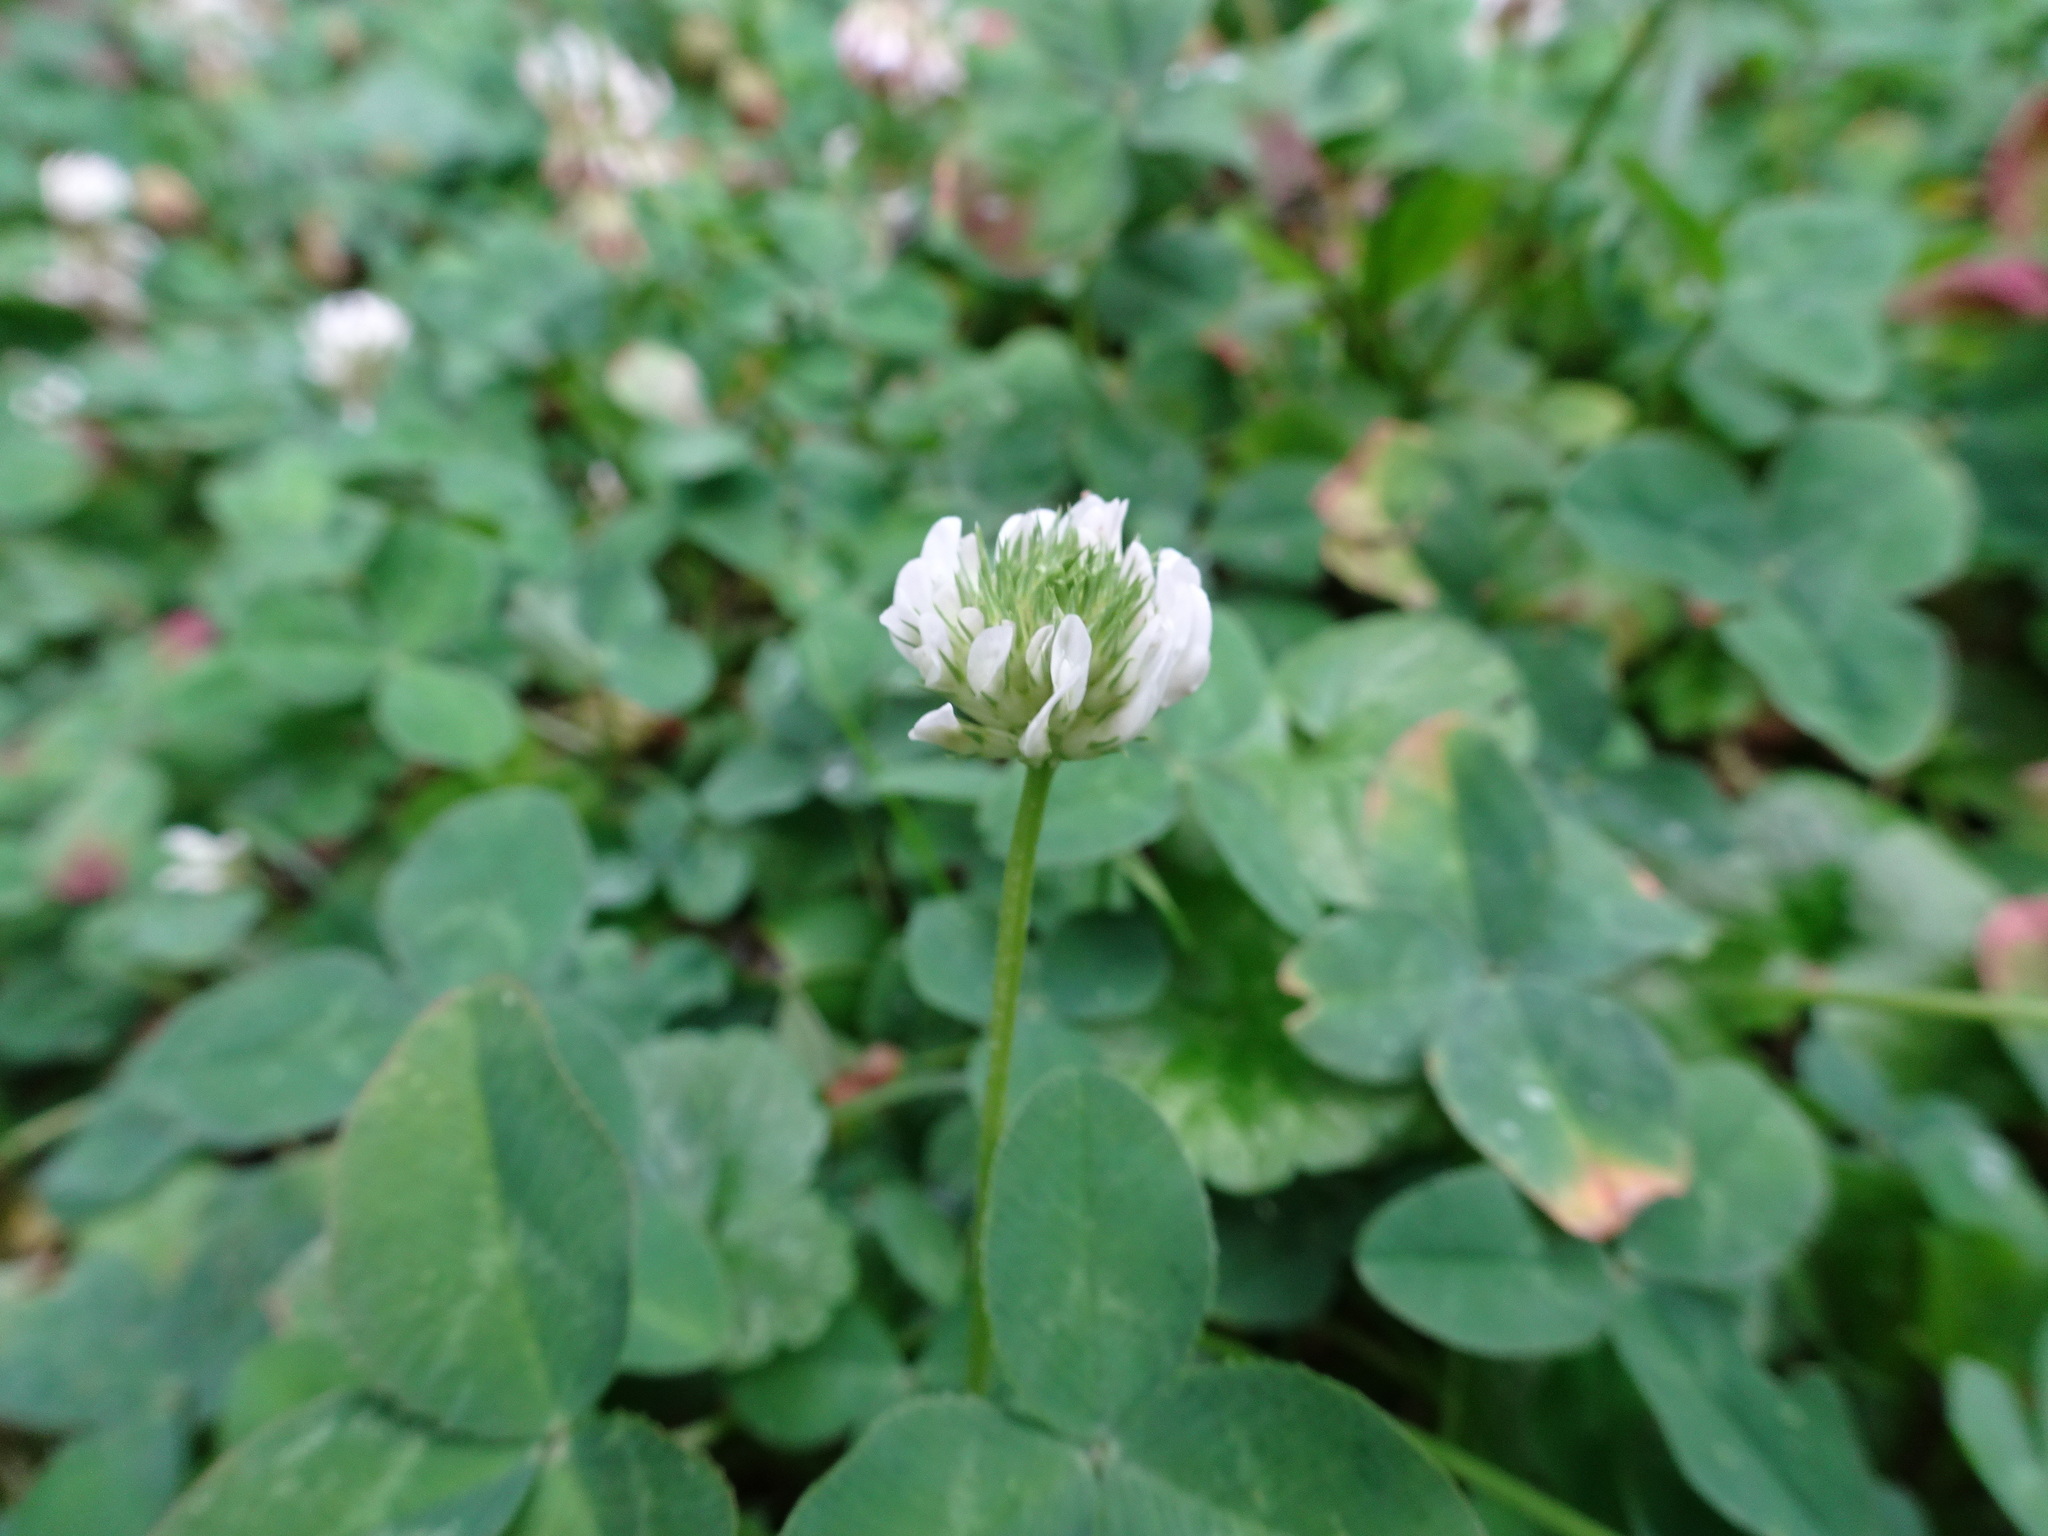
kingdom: Plantae
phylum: Tracheophyta
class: Magnoliopsida
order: Fabales
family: Fabaceae
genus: Trifolium
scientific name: Trifolium repens
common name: White clover
